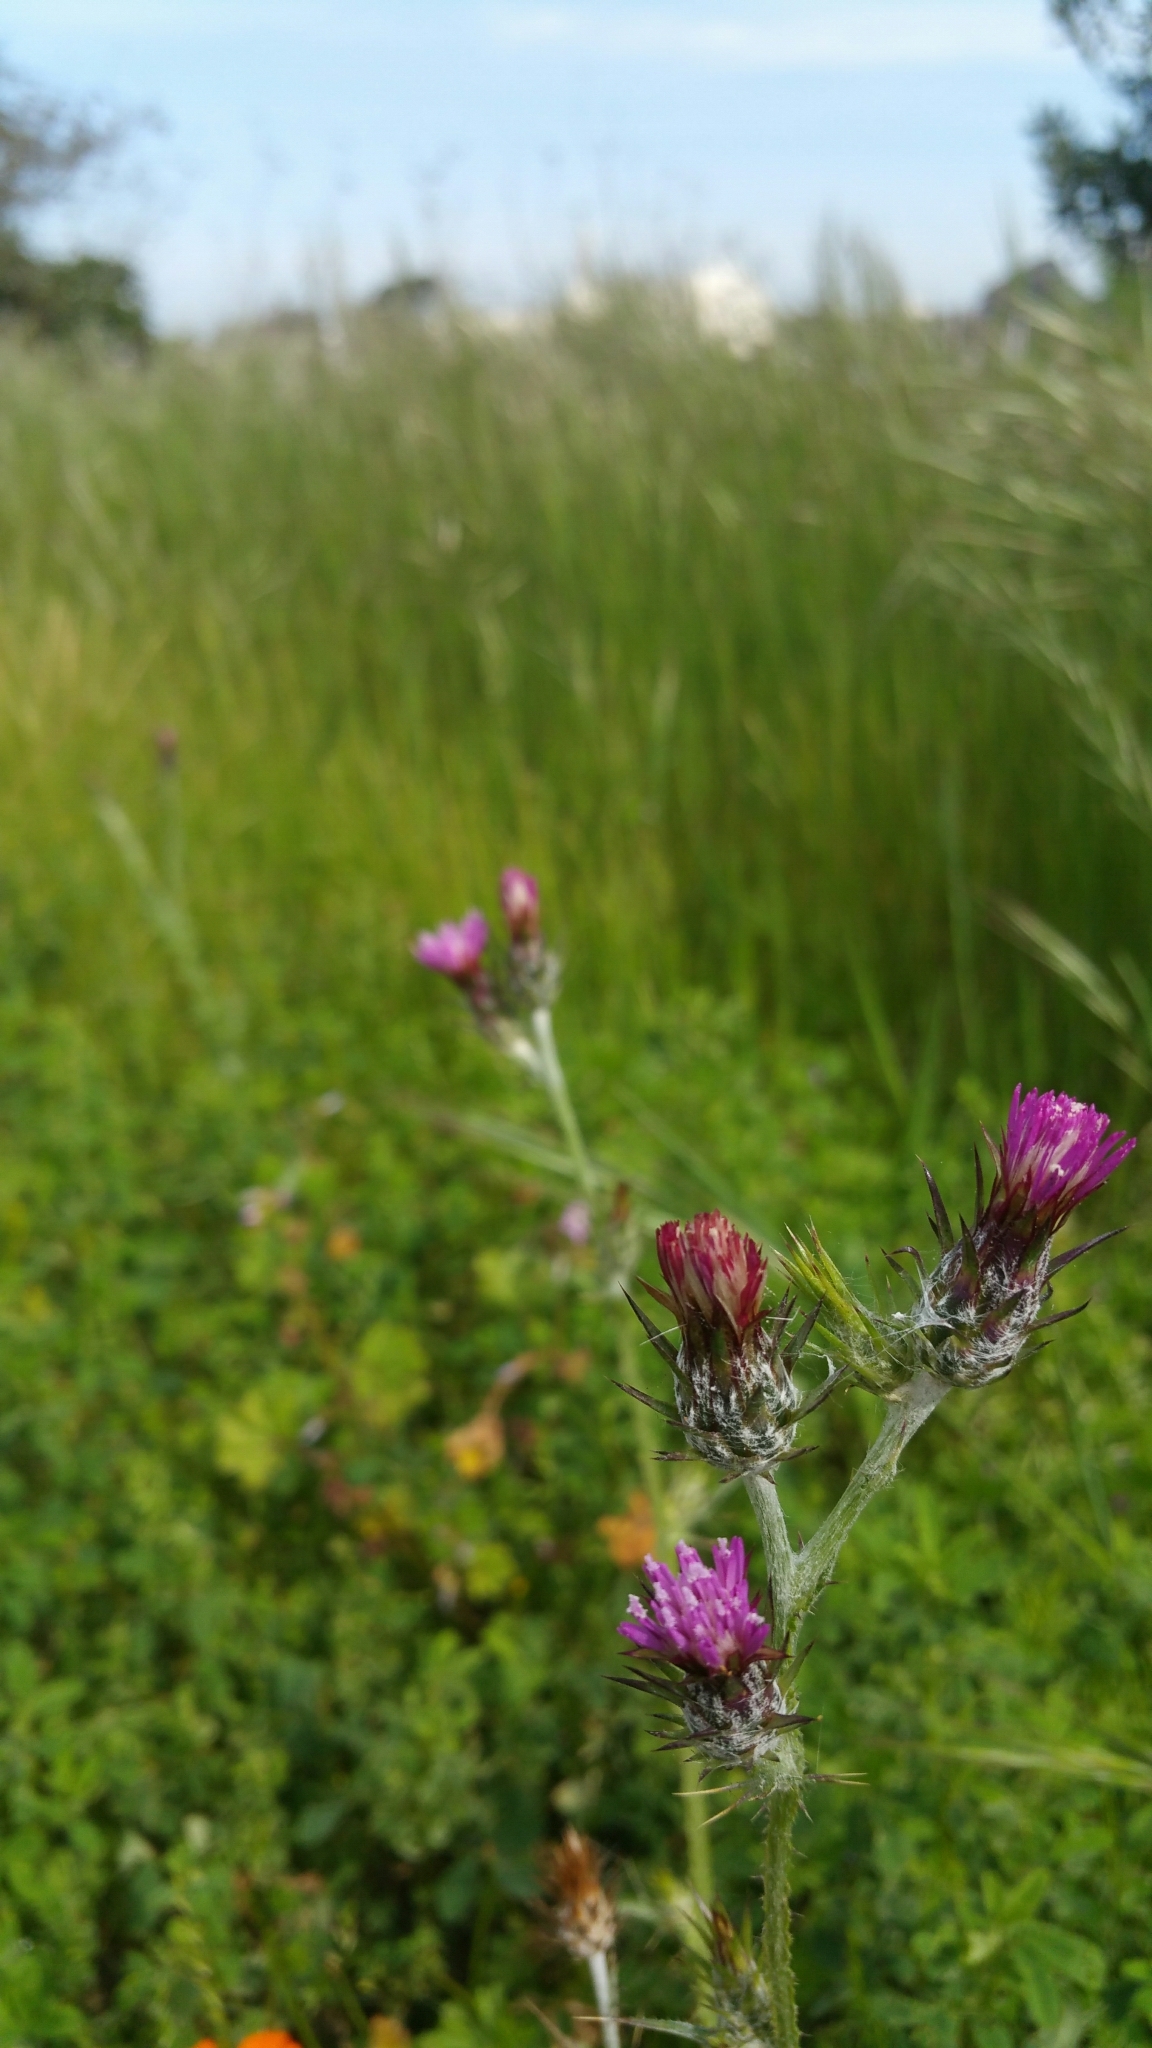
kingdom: Plantae
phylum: Tracheophyta
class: Magnoliopsida
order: Asterales
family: Asteraceae
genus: Carduus
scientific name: Carduus pycnocephalus
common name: Plymouth thistle
